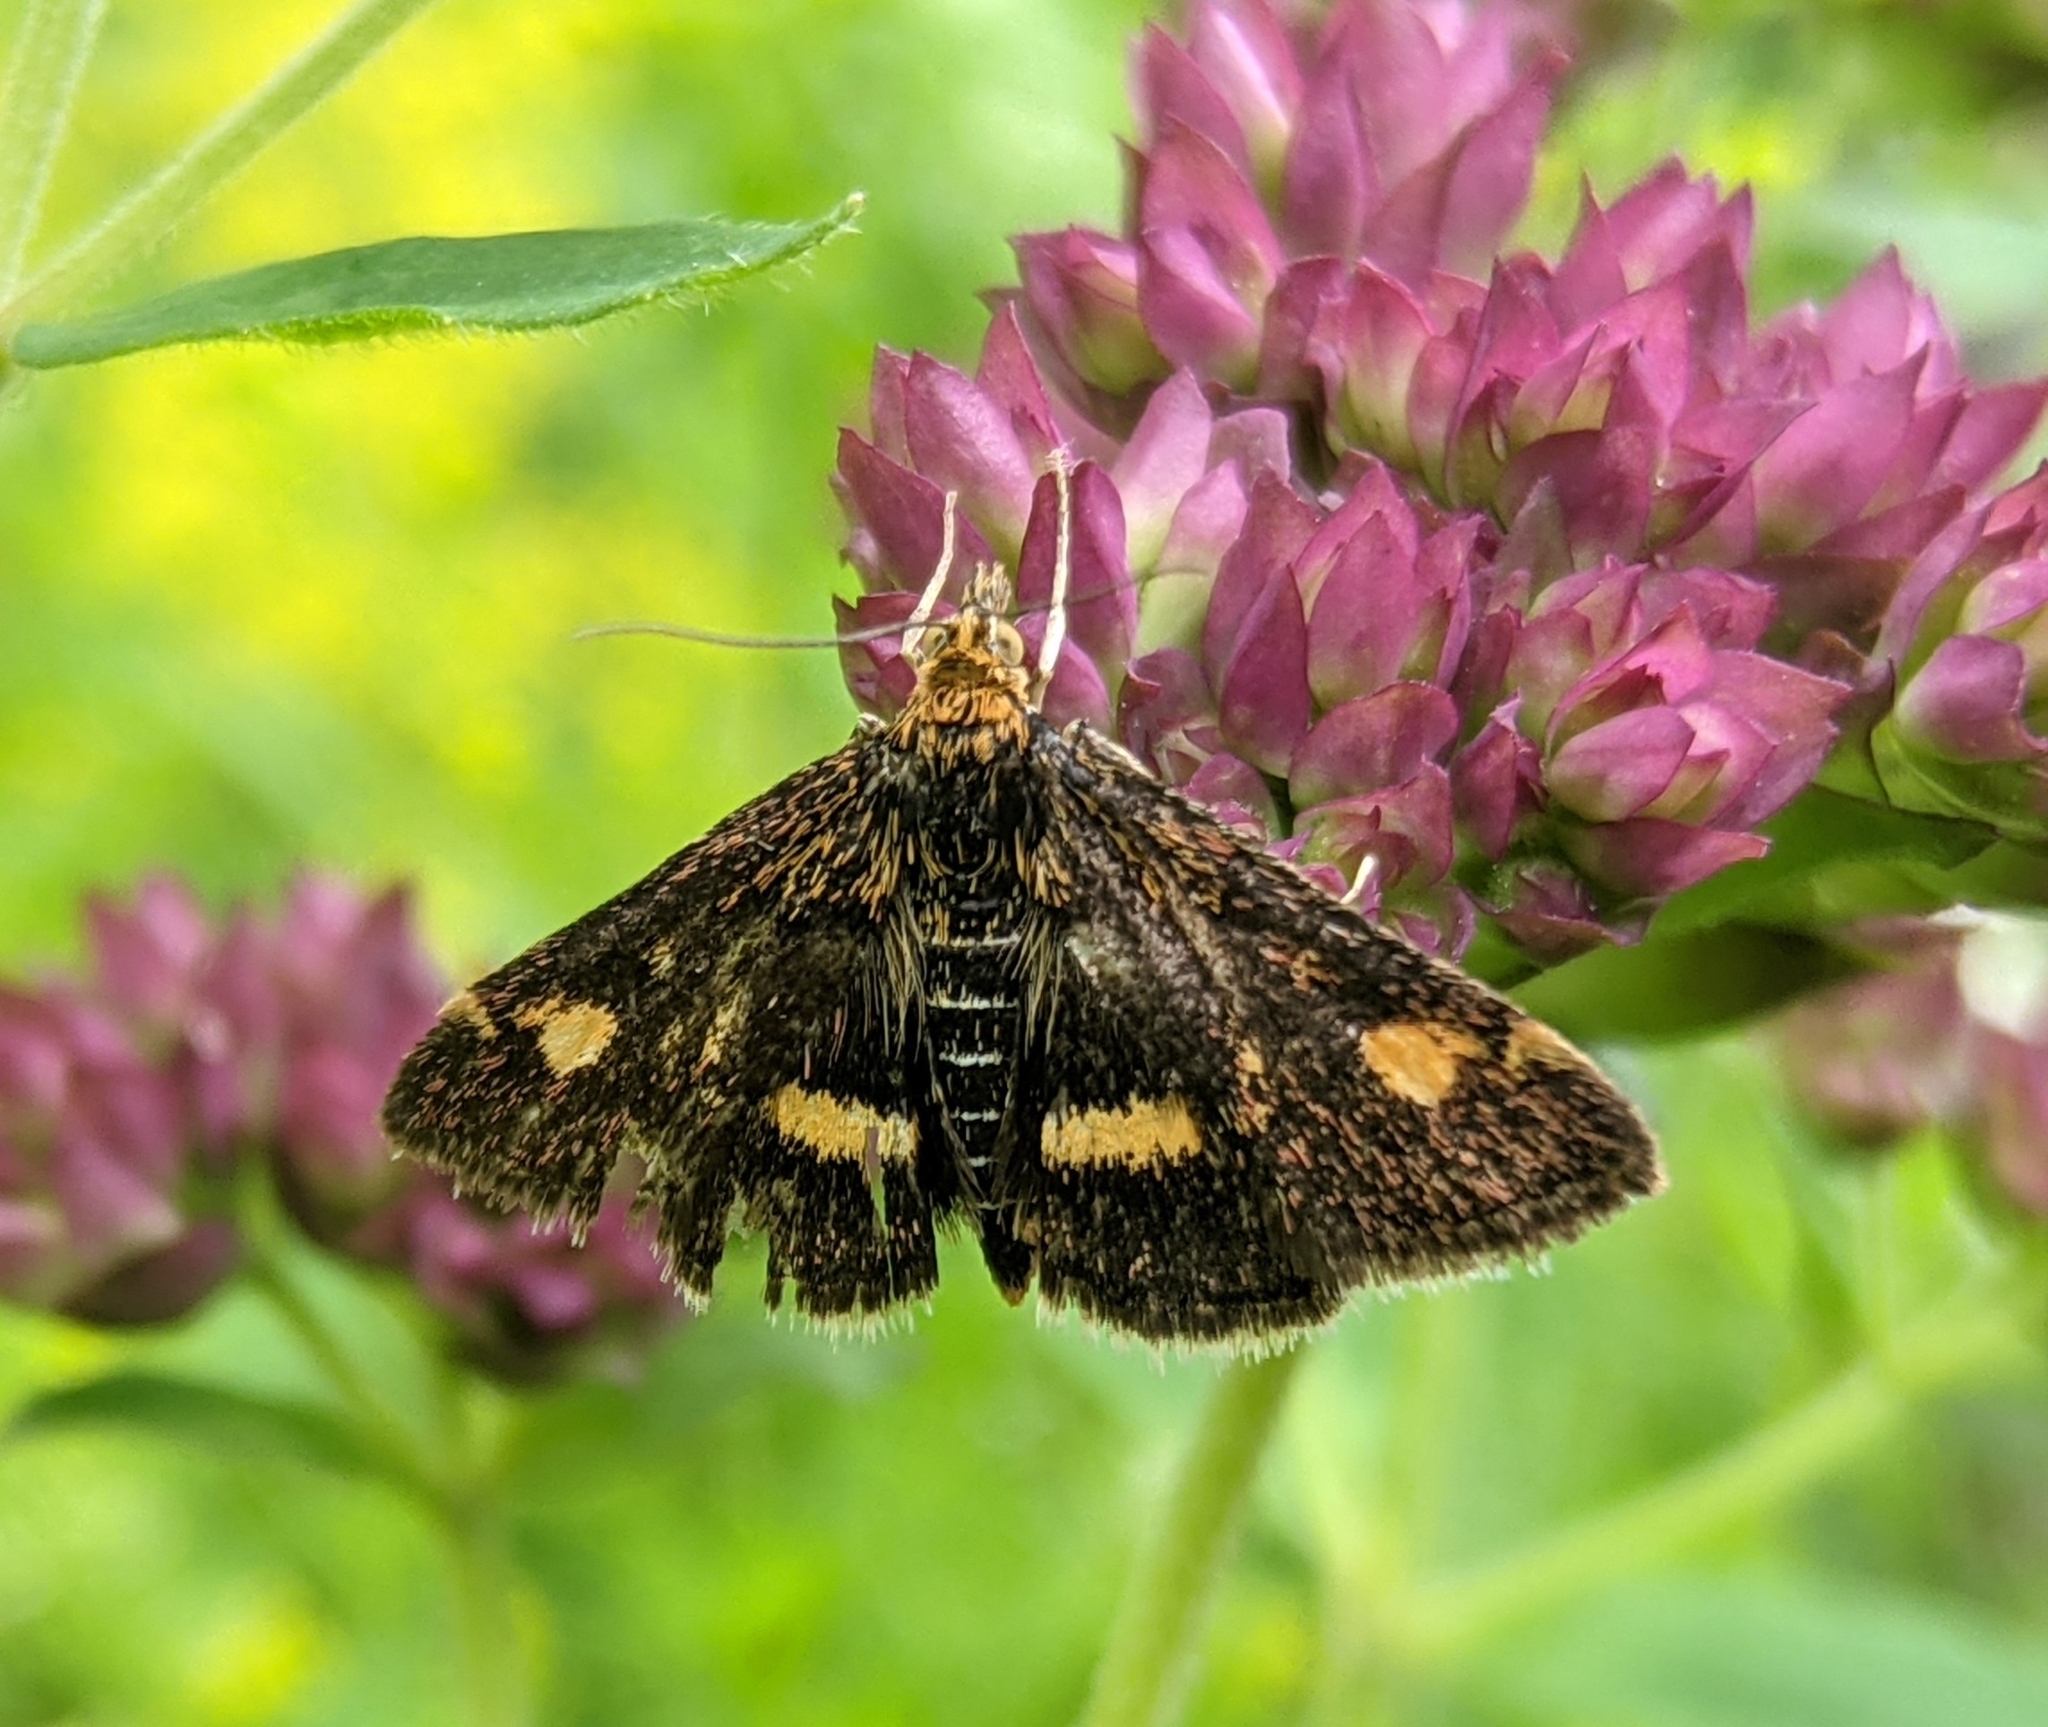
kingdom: Animalia
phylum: Arthropoda
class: Insecta
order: Lepidoptera
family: Crambidae
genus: Pyrausta
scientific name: Pyrausta aurata
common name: Small purple & gold
